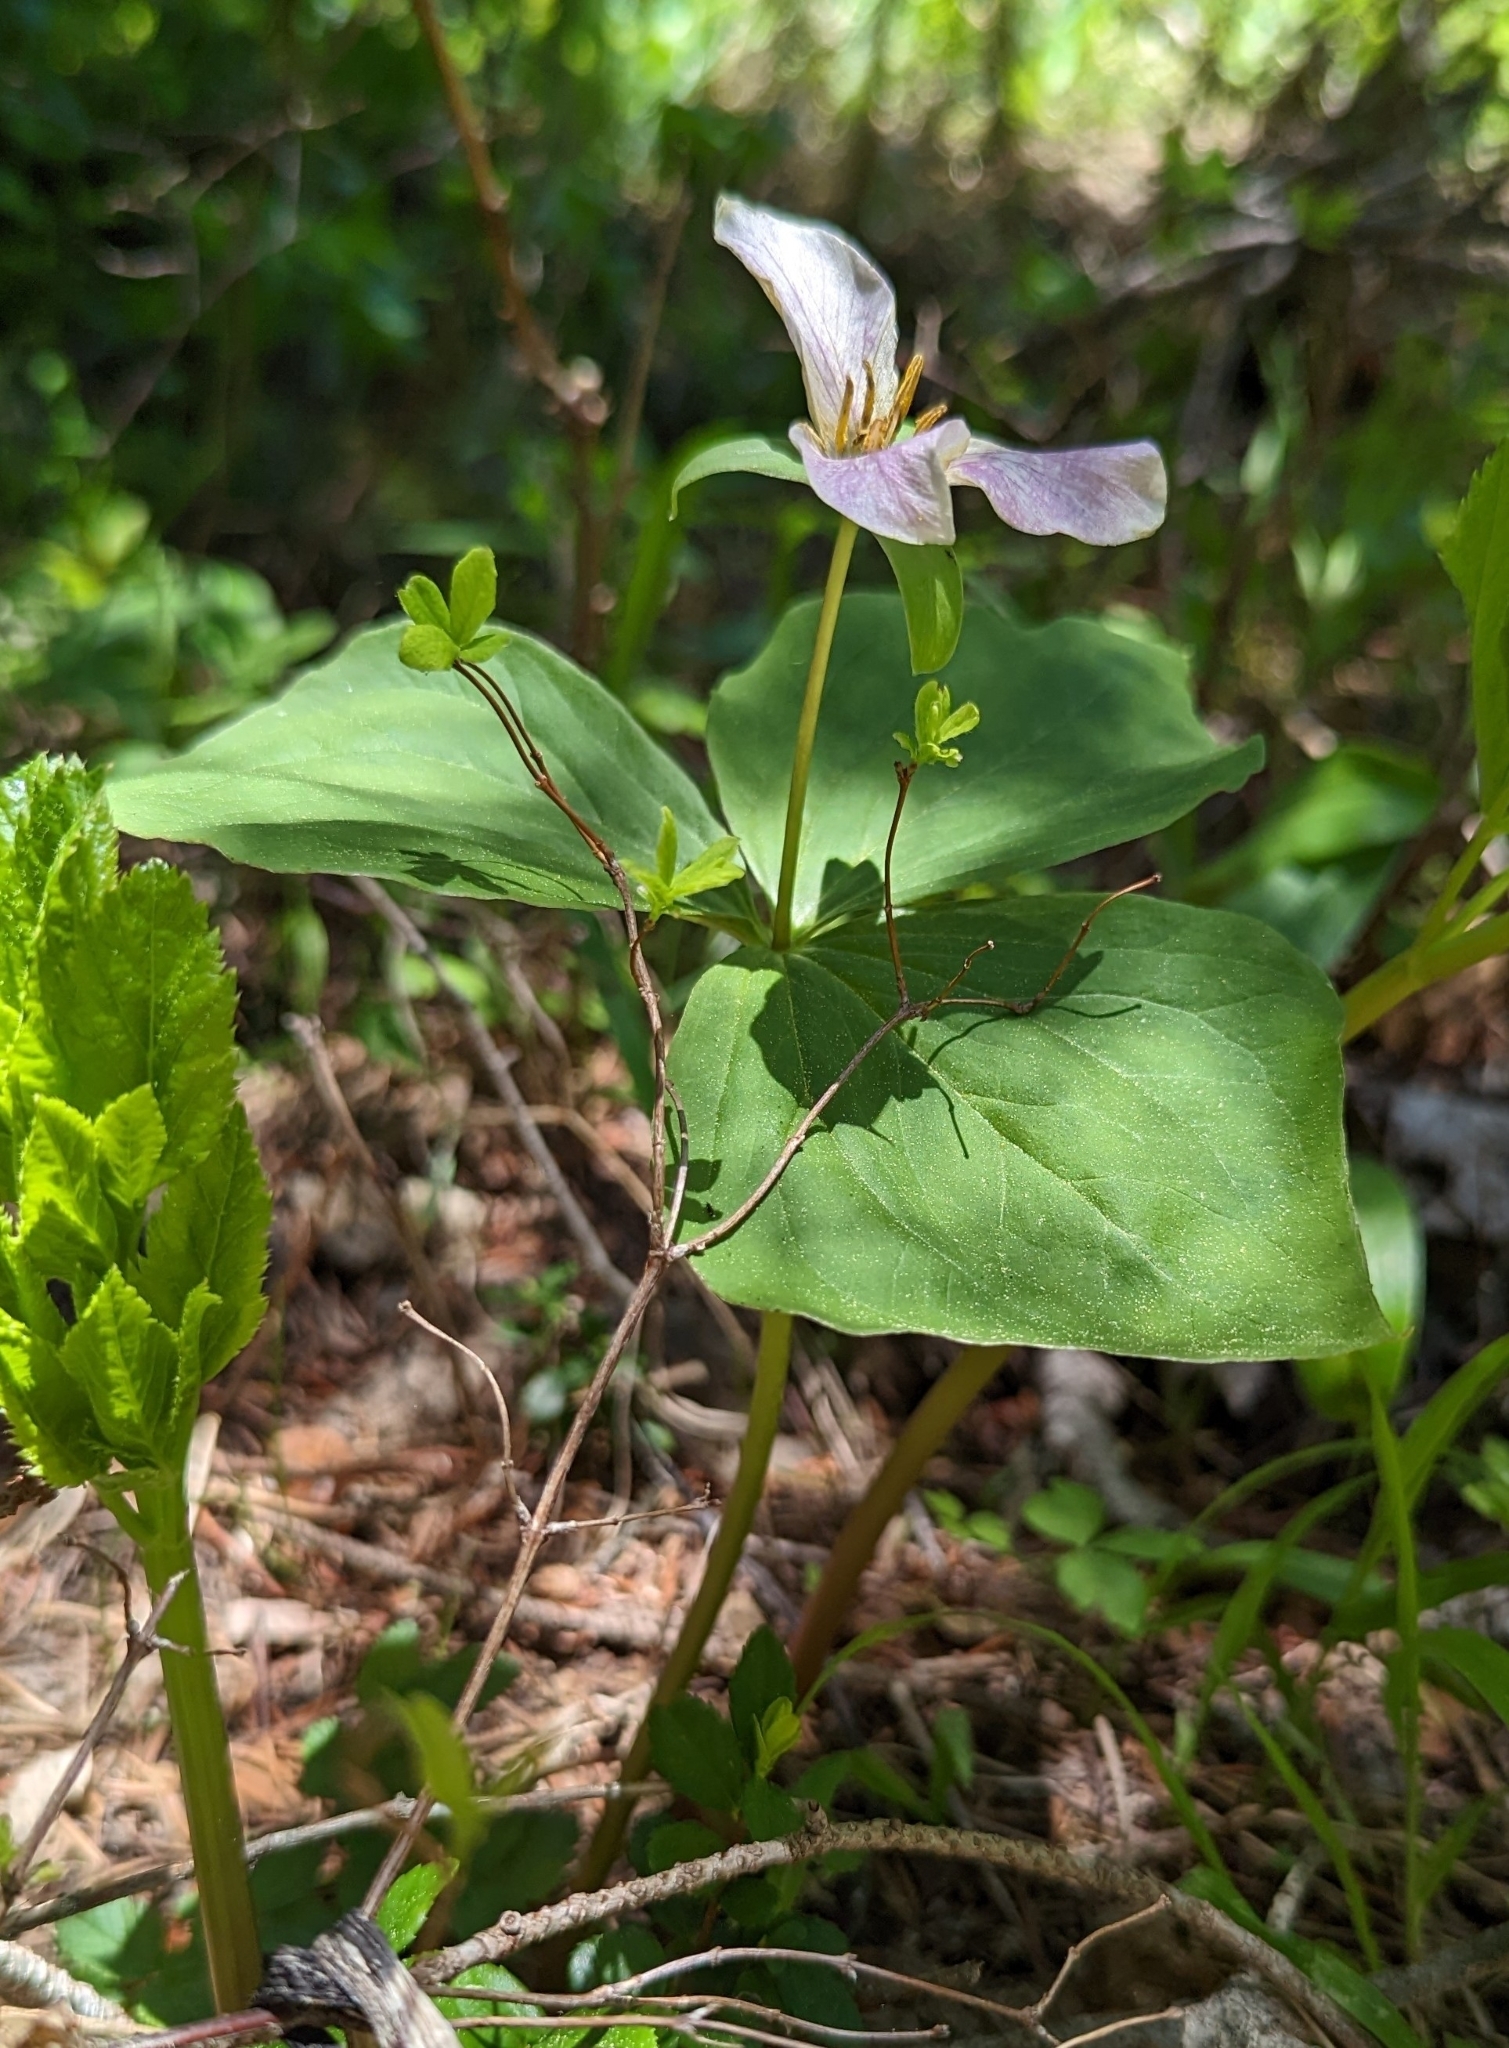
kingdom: Plantae
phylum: Tracheophyta
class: Liliopsida
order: Liliales
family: Melanthiaceae
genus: Trillium
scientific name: Trillium ovatum
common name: Pacific trillium
